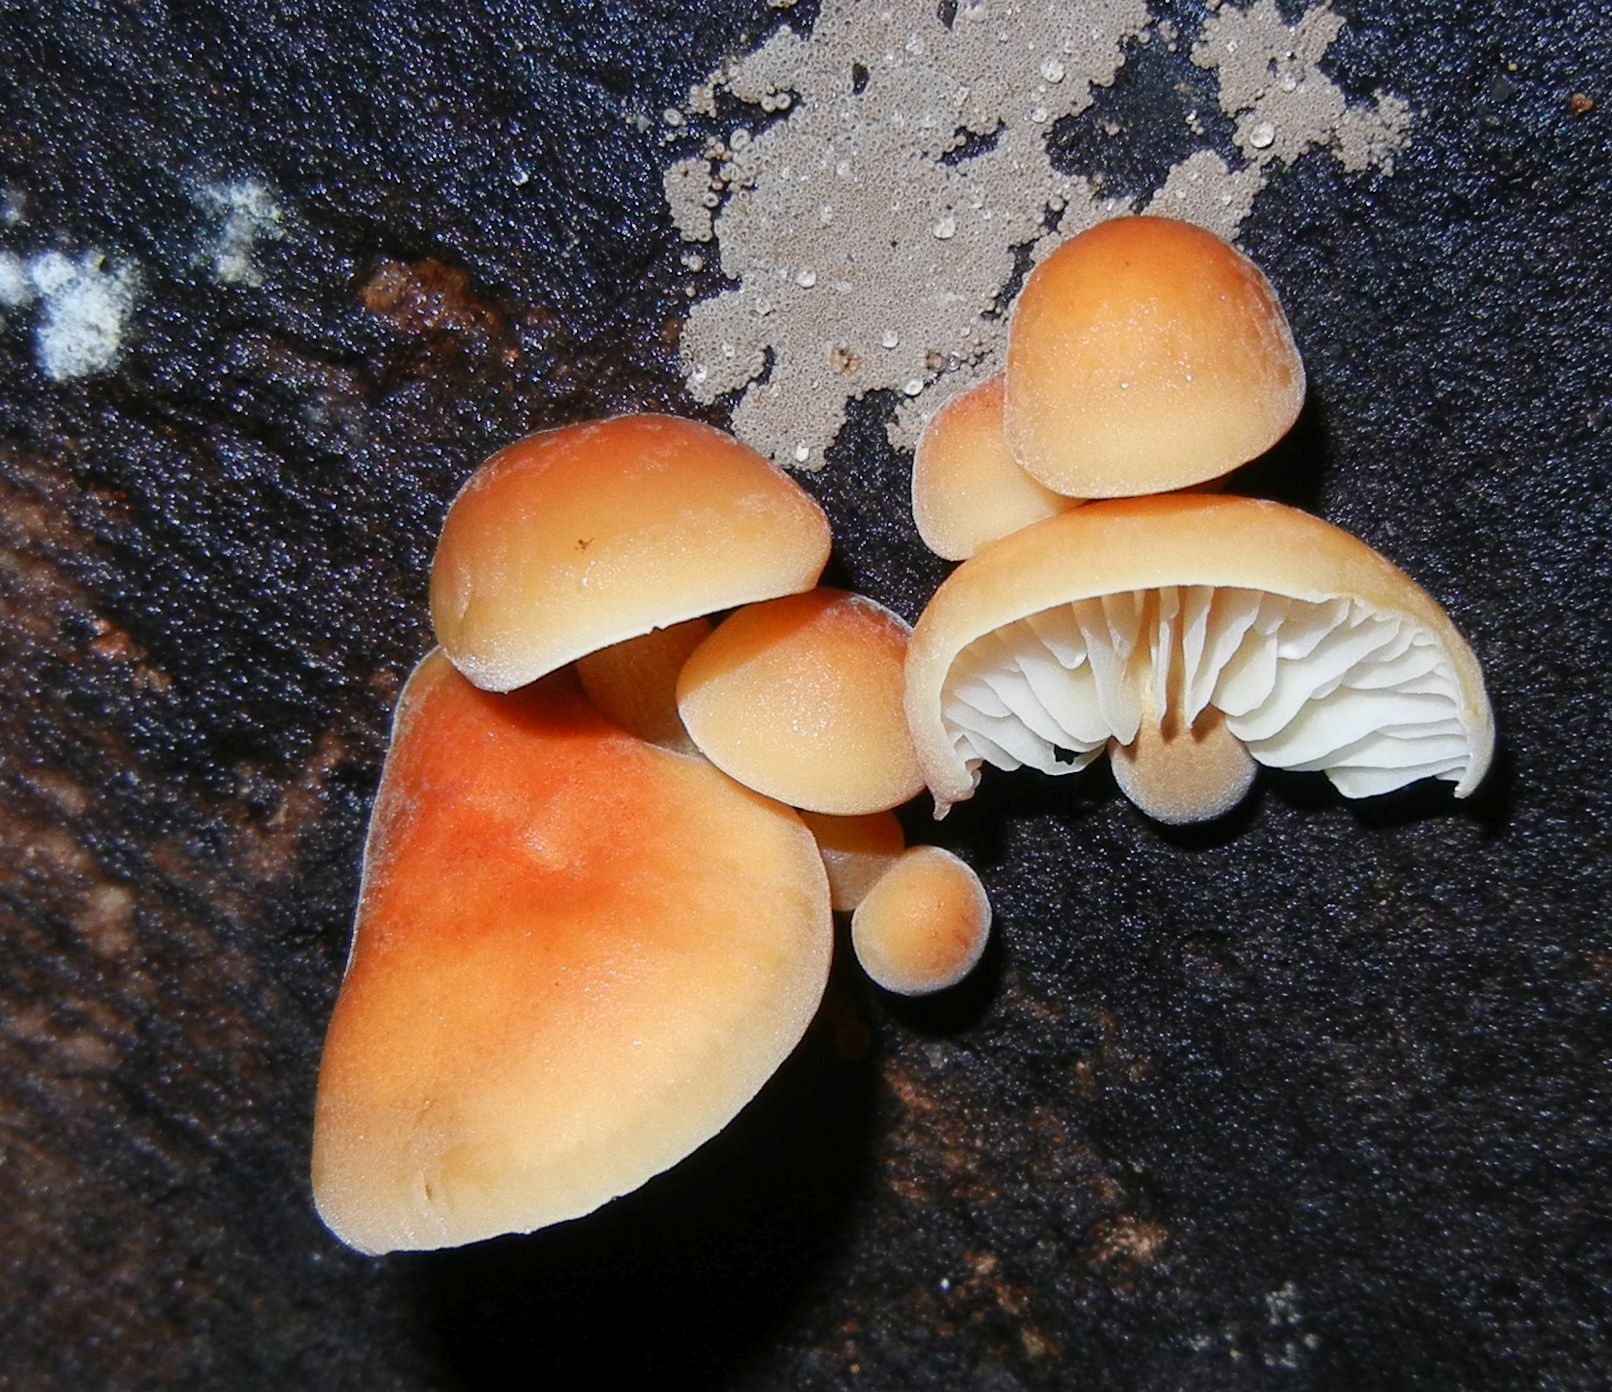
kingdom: Fungi
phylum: Basidiomycota
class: Agaricomycetes
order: Agaricales
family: Physalacriaceae
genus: Flammulina
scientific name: Flammulina
